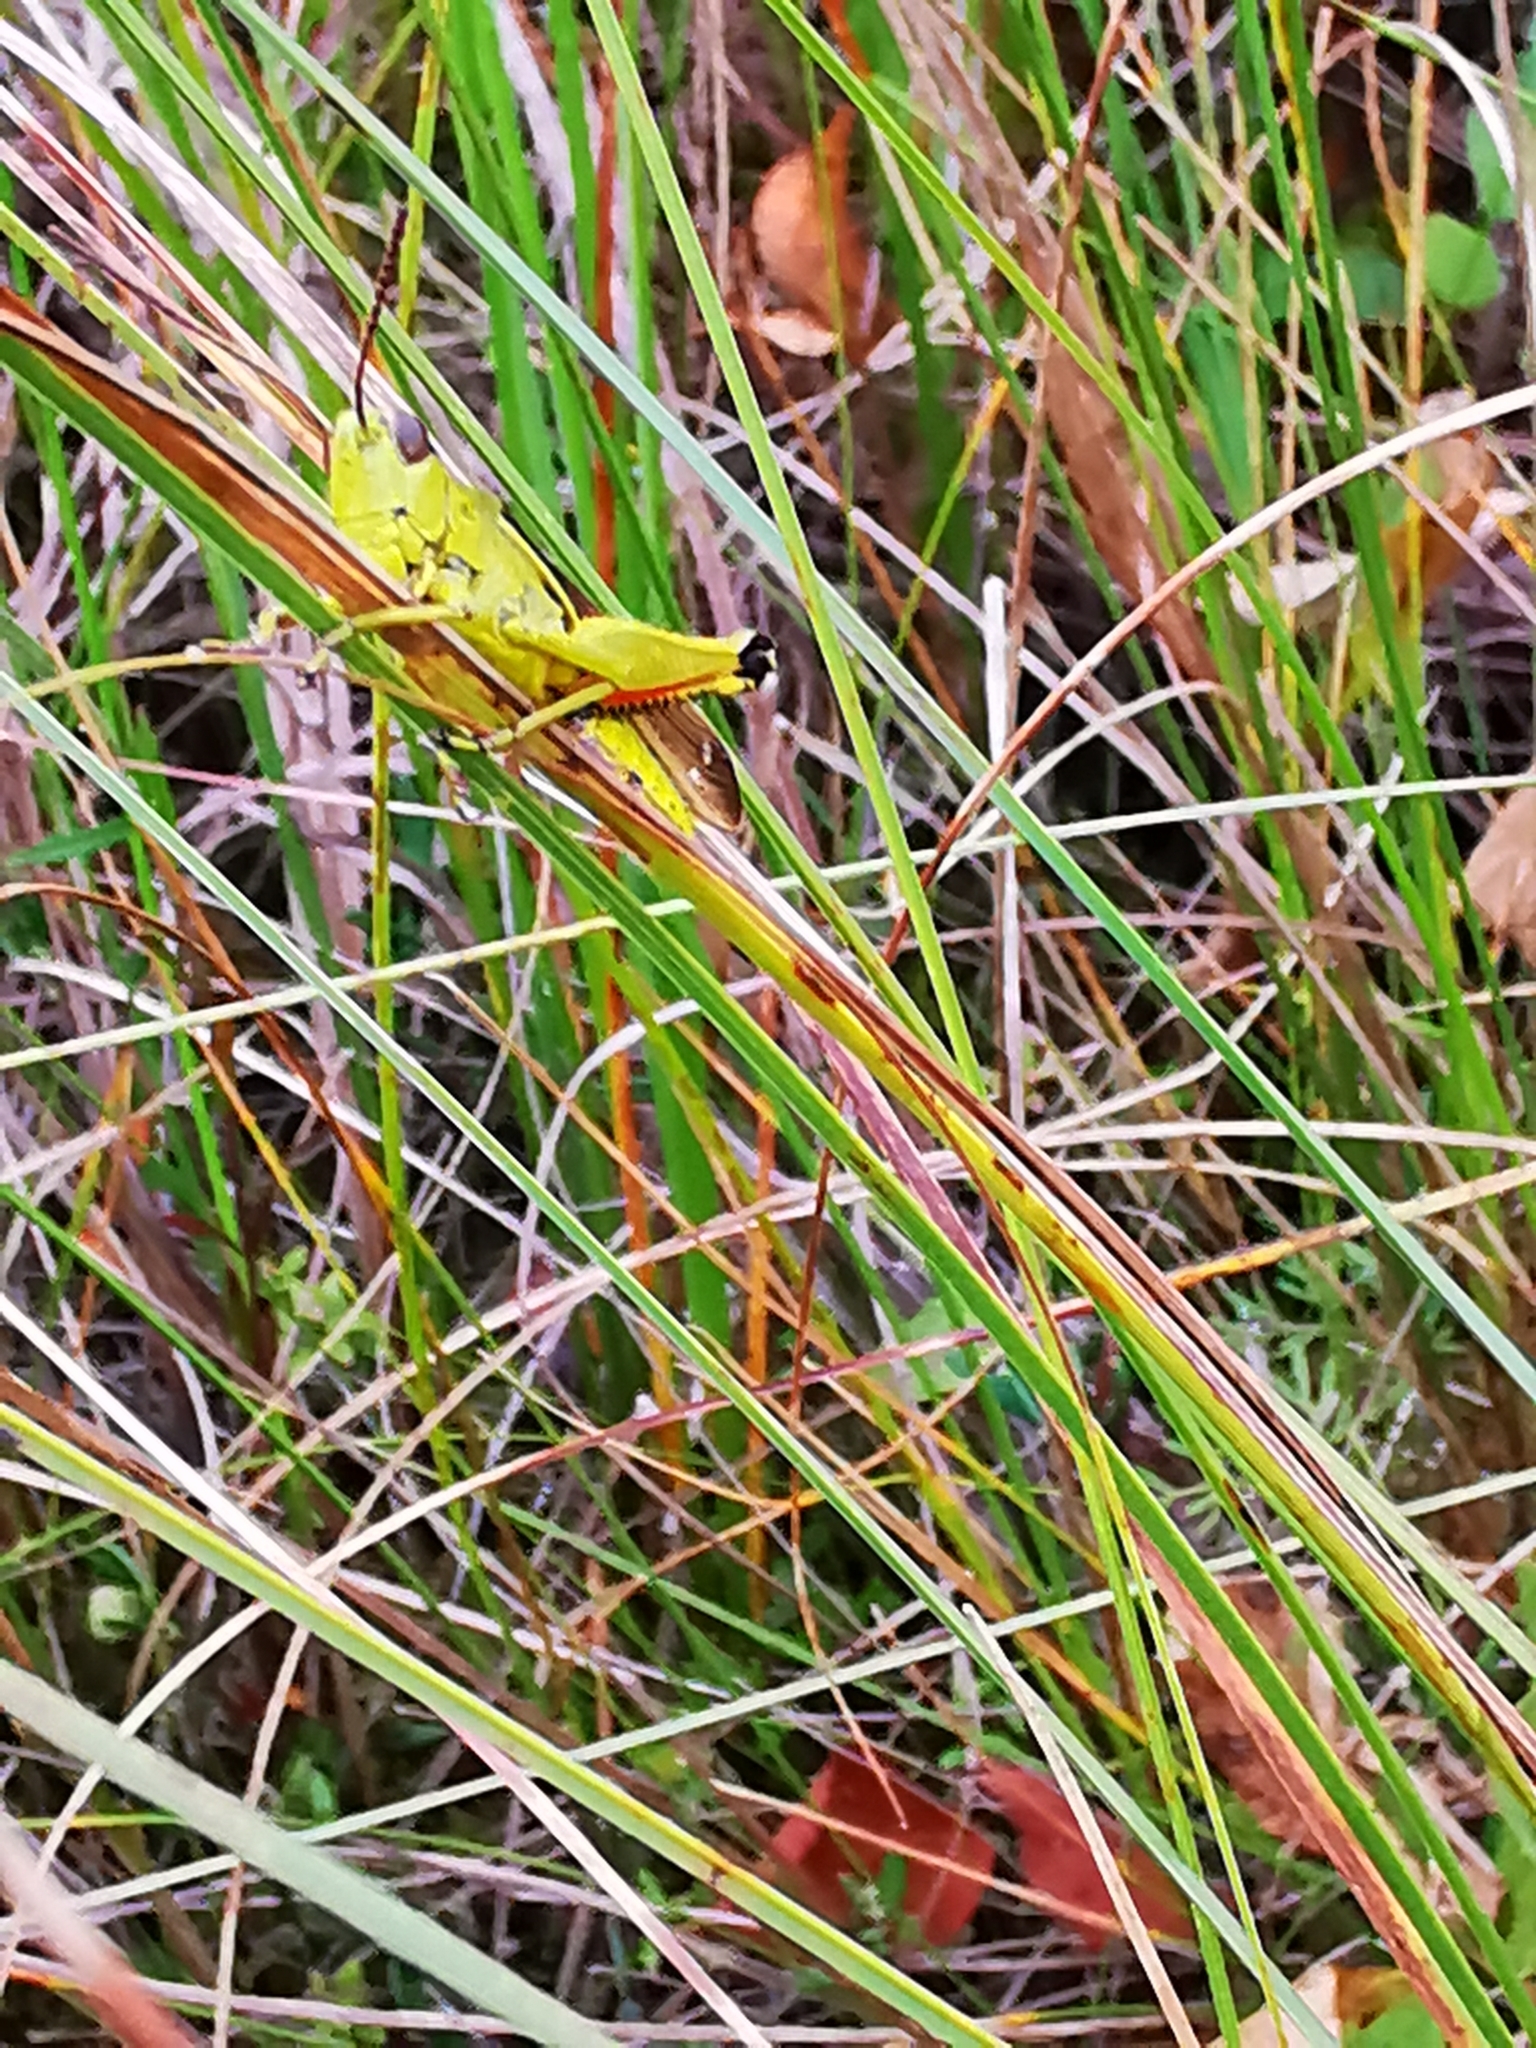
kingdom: Animalia
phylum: Arthropoda
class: Insecta
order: Orthoptera
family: Acrididae
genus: Stethophyma
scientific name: Stethophyma grossum
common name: Large marsh grasshopper
